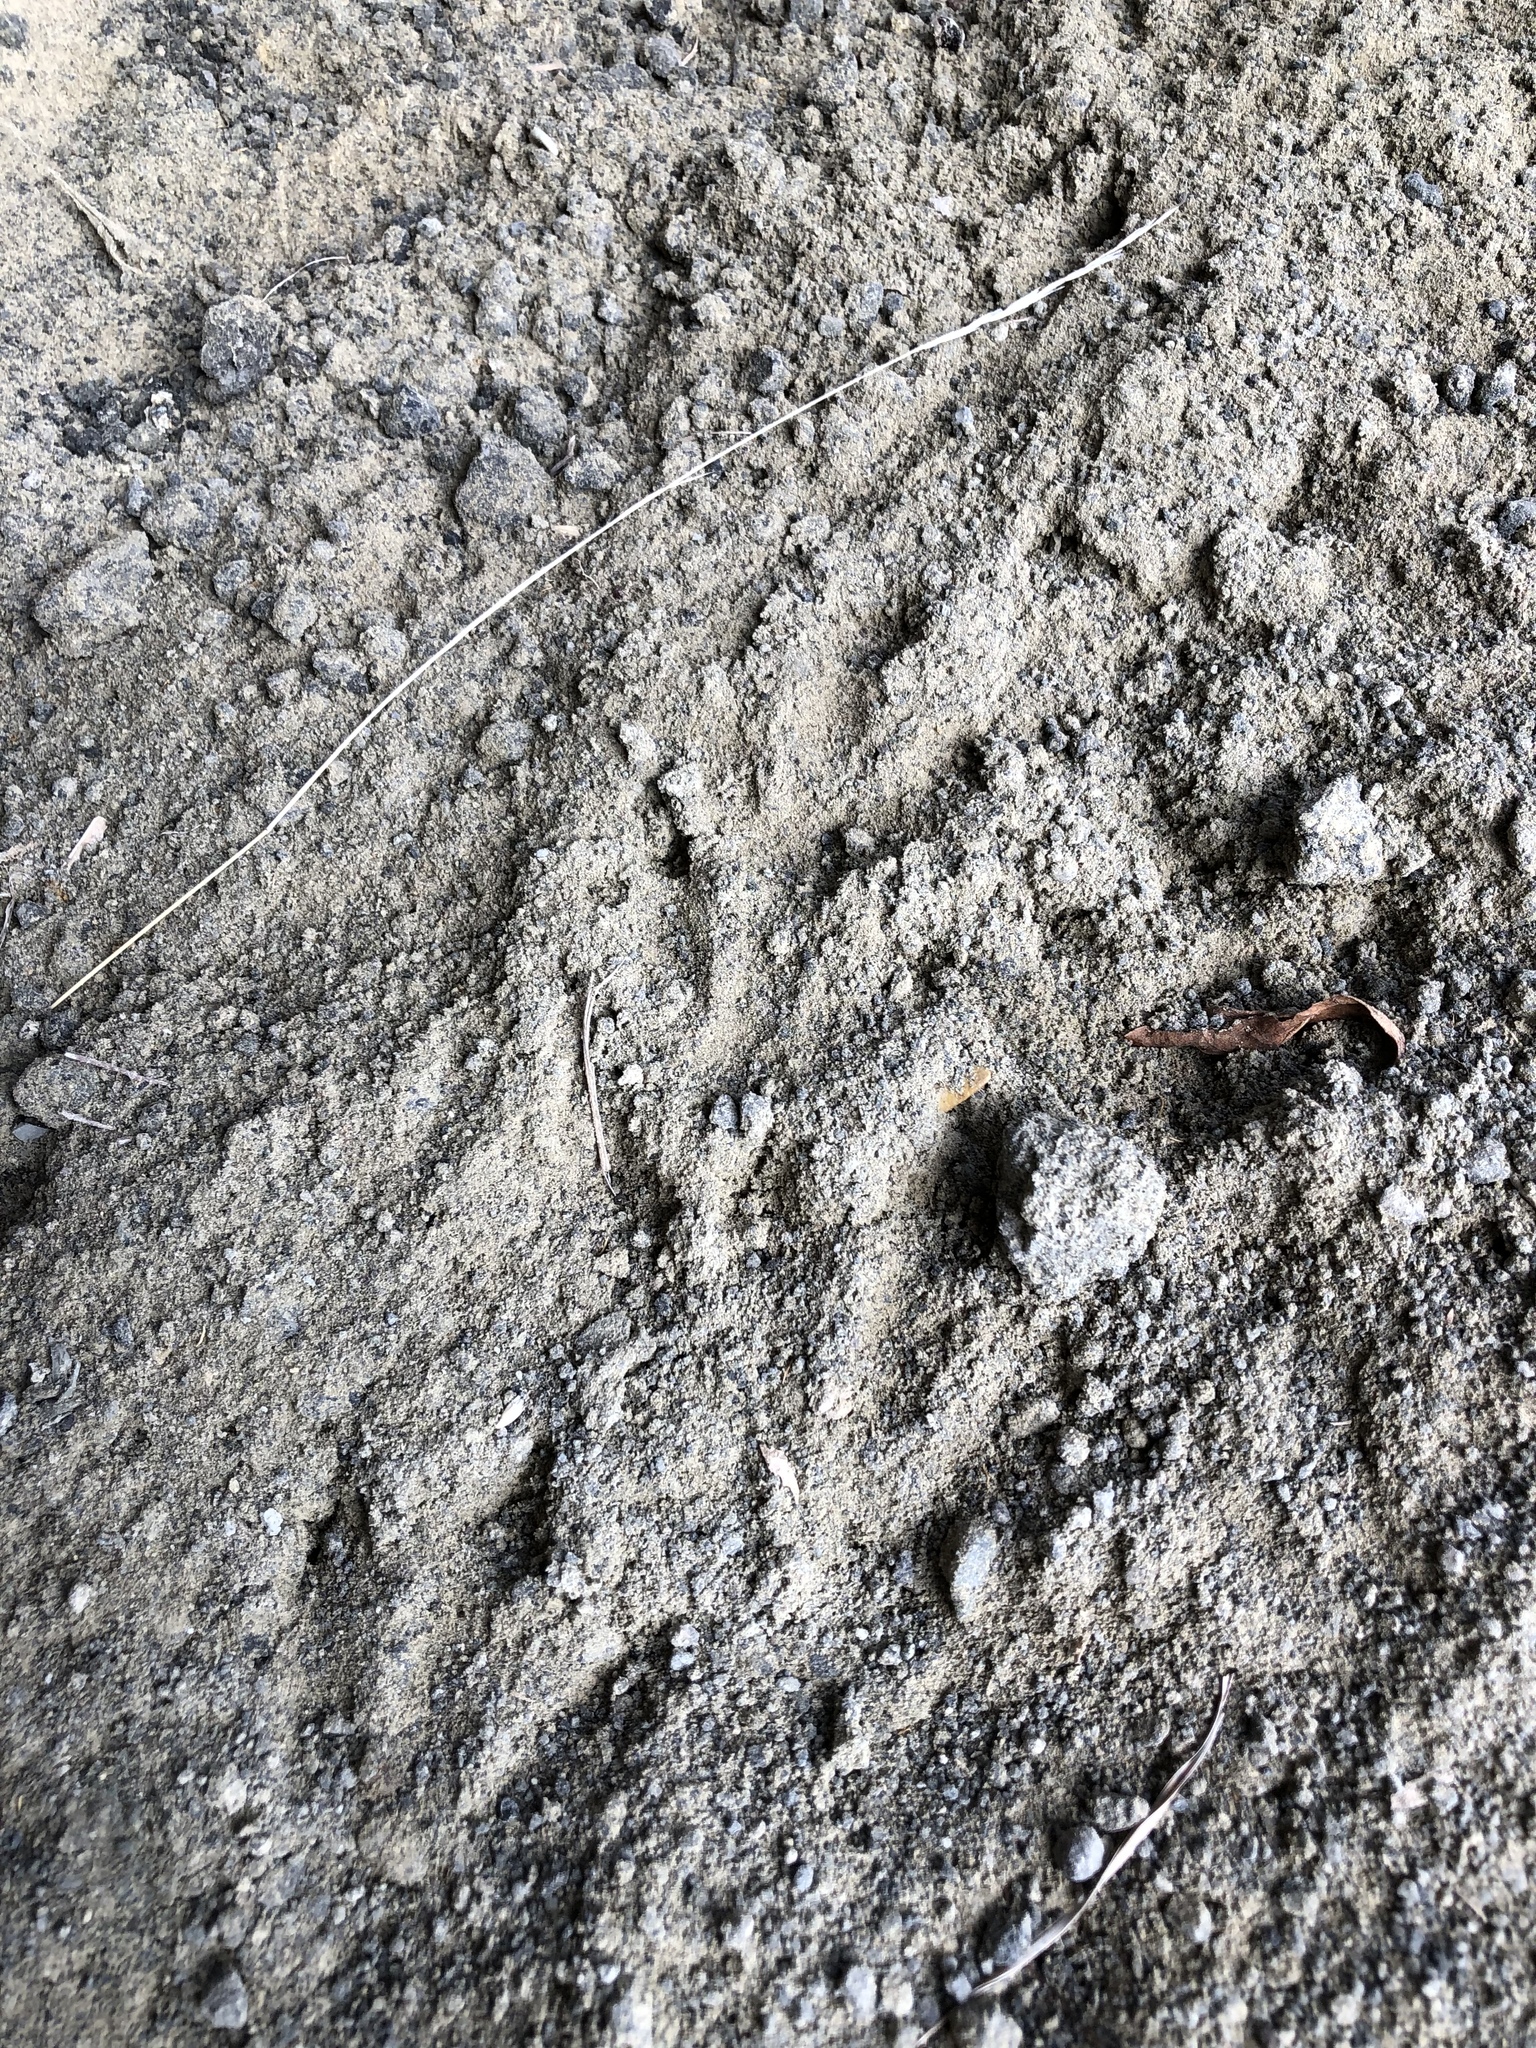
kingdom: Animalia
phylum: Chordata
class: Aves
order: Sphenisciformes
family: Spheniscidae
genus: Eudyptula
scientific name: Eudyptula minor
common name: Little penguin
